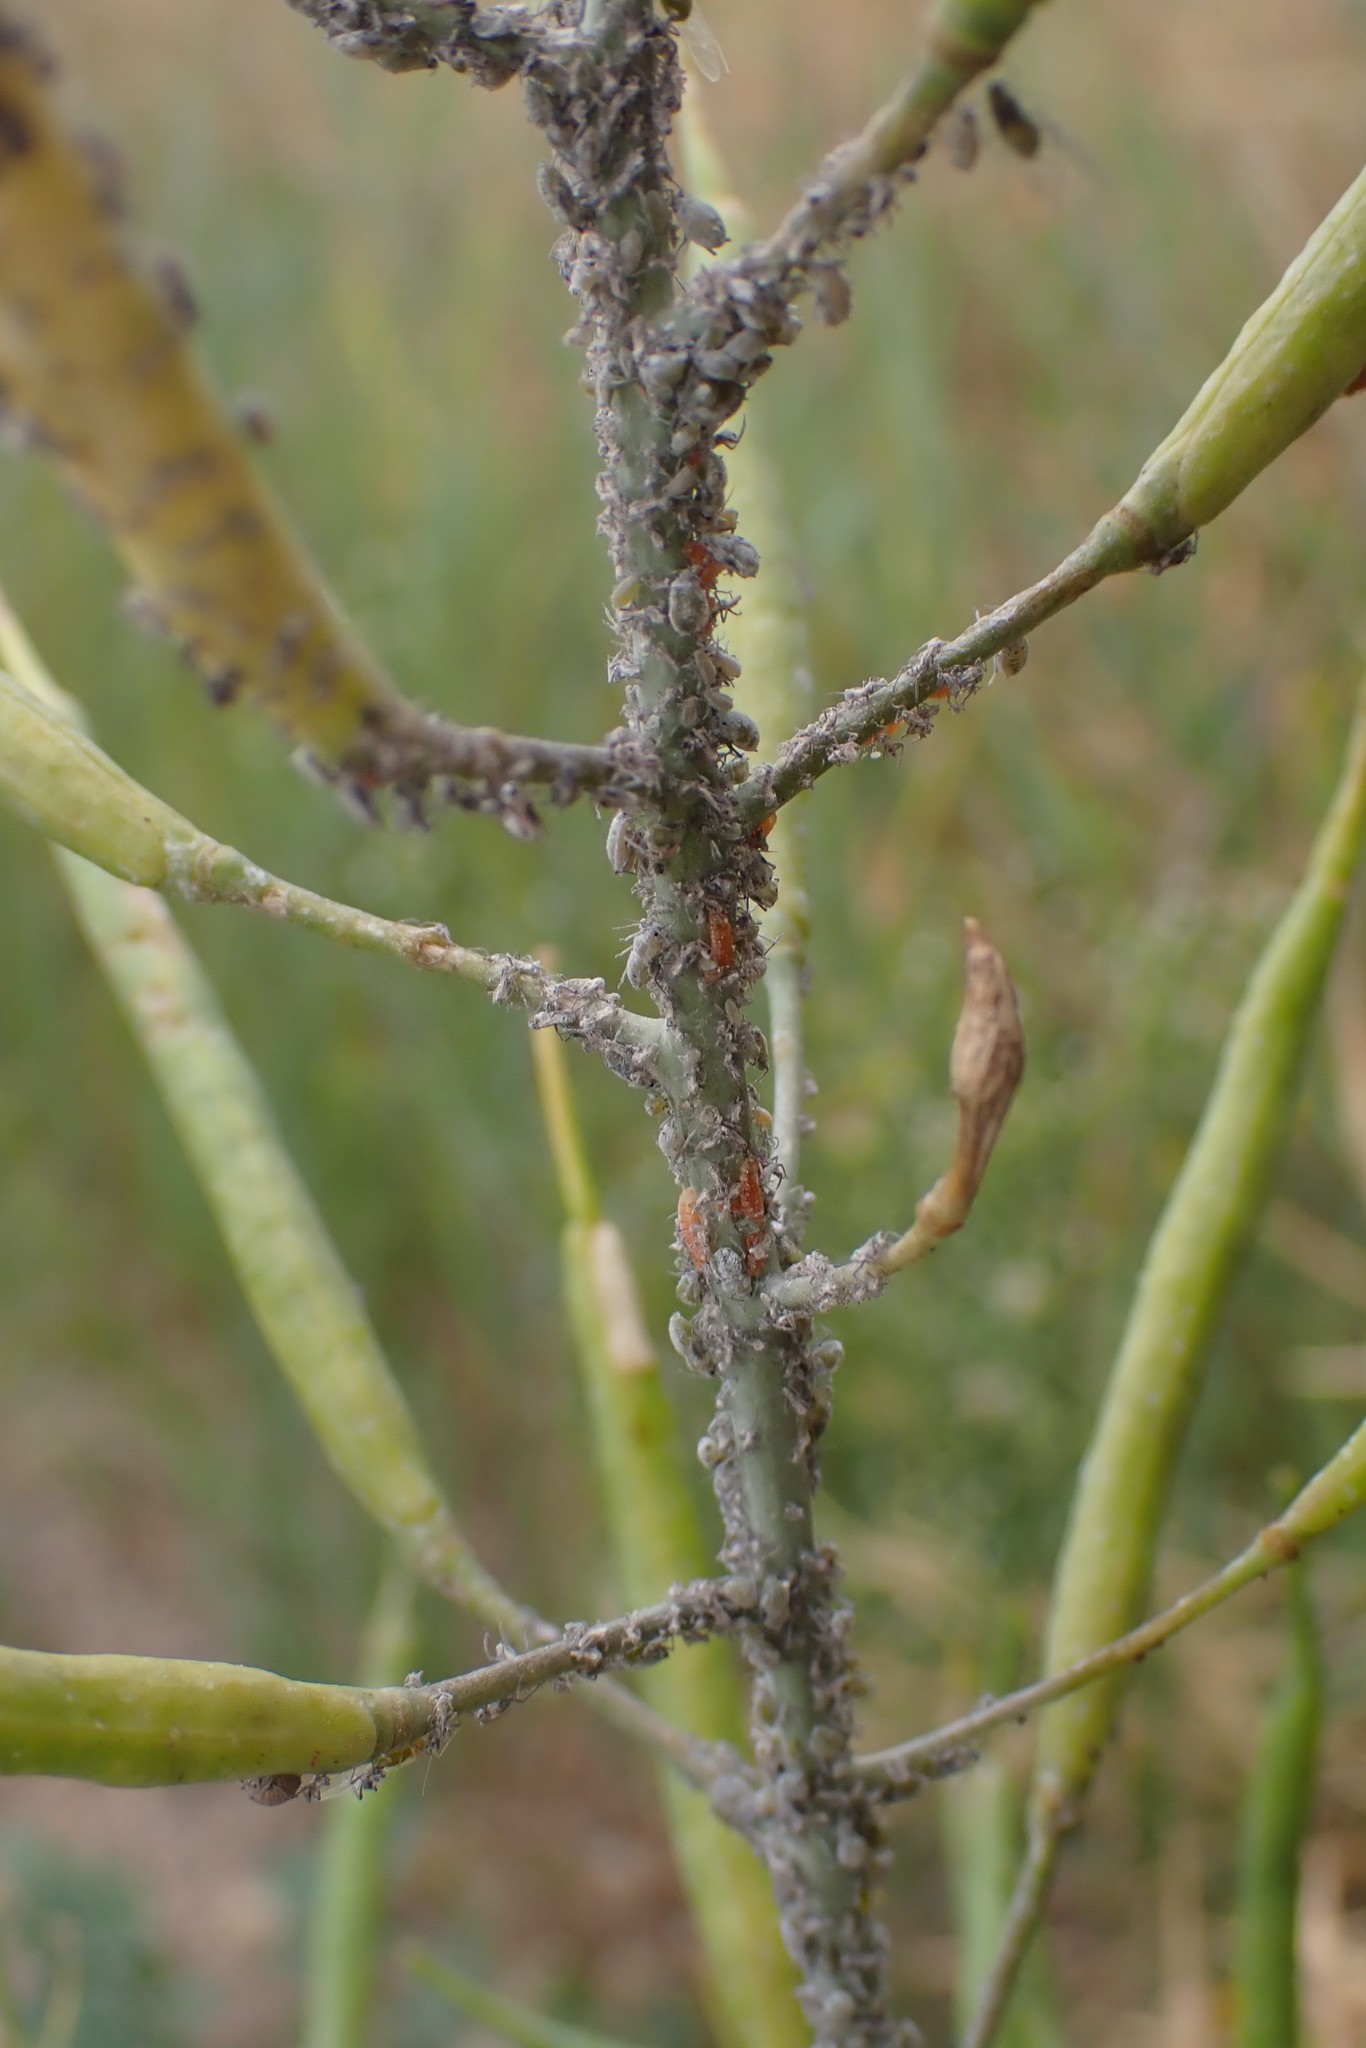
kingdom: Animalia
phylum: Arthropoda
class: Insecta
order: Hemiptera
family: Aphididae
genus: Brevicoryne
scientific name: Brevicoryne brassicae
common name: Cabbage aphid
